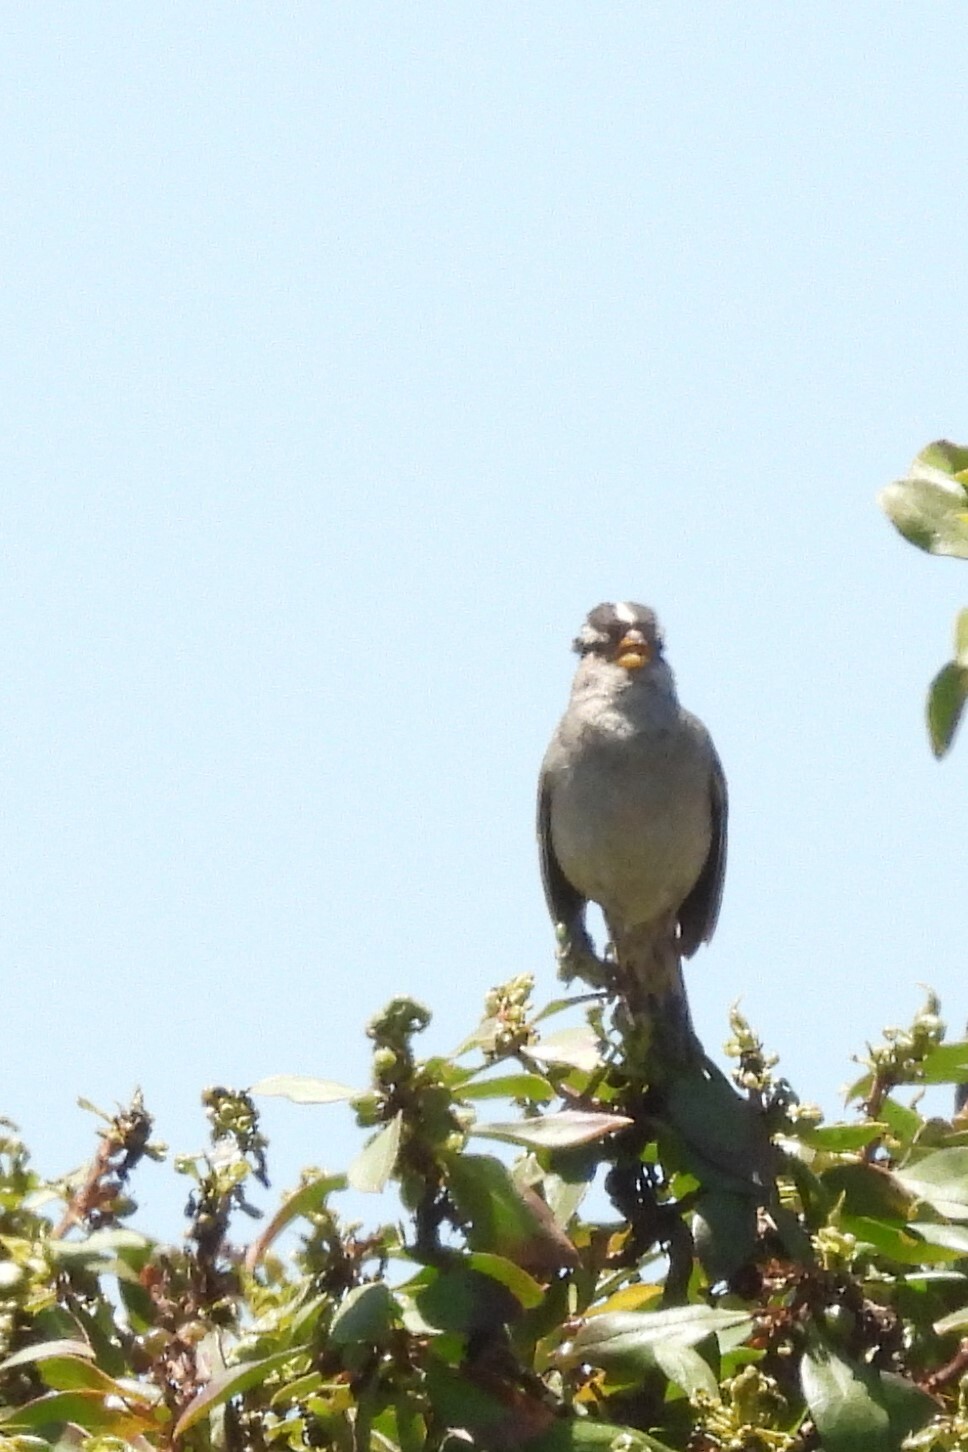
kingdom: Animalia
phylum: Chordata
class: Aves
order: Passeriformes
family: Passerellidae
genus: Zonotrichia
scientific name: Zonotrichia leucophrys
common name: White-crowned sparrow
